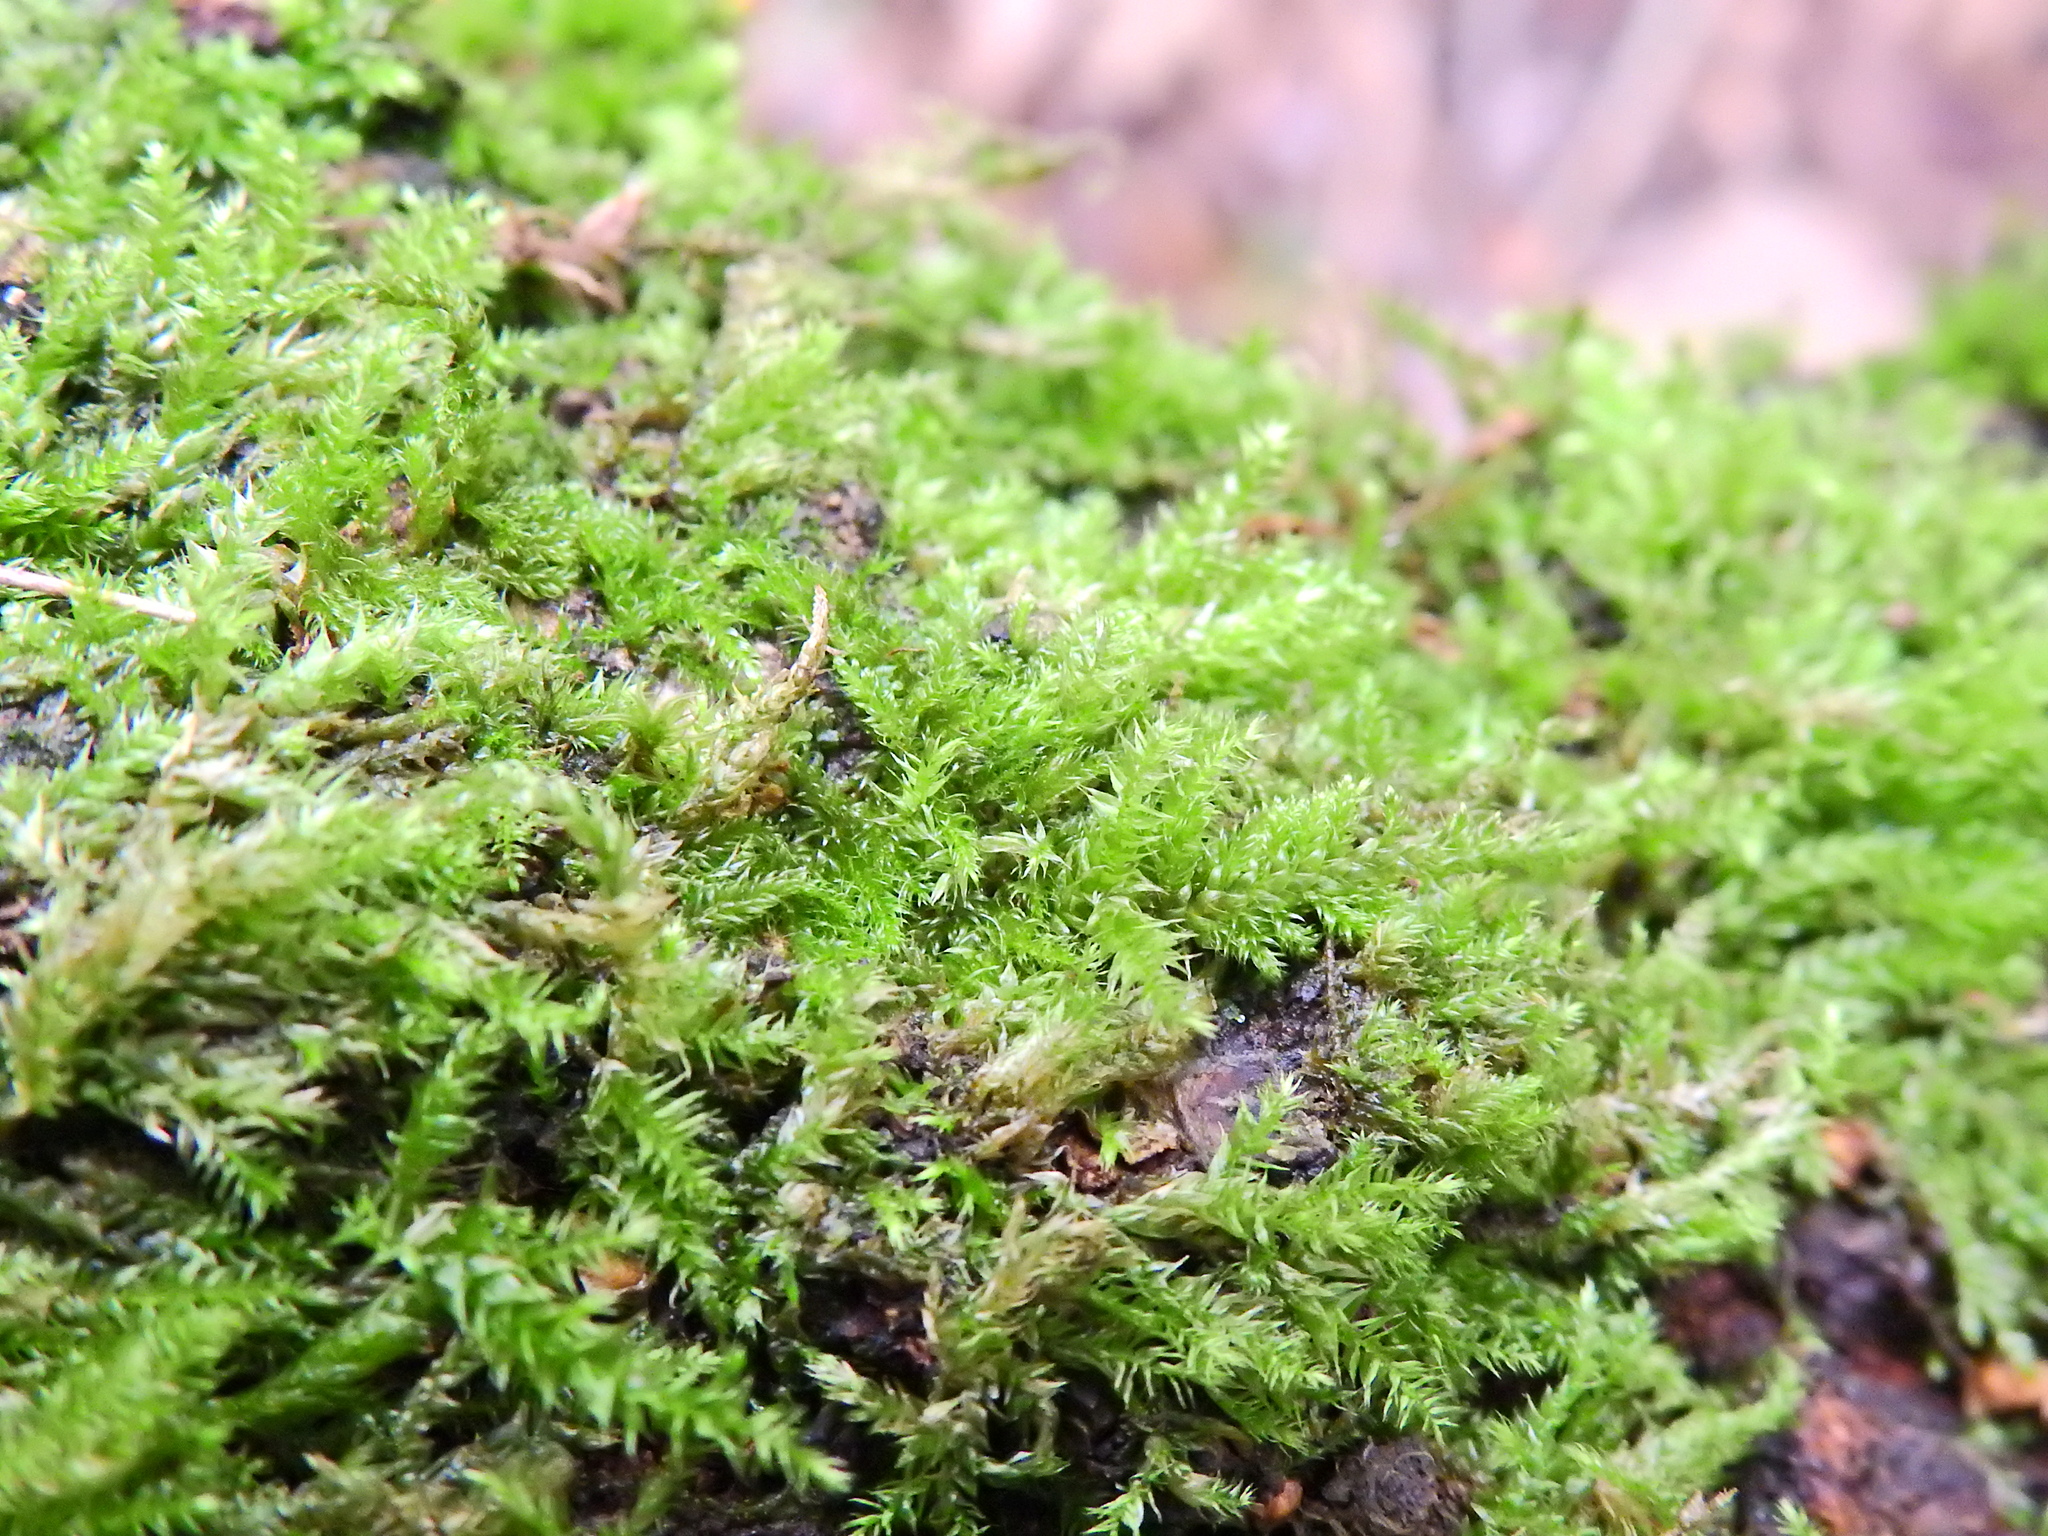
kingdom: Plantae
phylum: Bryophyta
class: Bryopsida
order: Hypnales
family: Hypnaceae
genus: Hypnum
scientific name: Hypnum cupressiforme
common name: Cypress-leaved plait-moss
